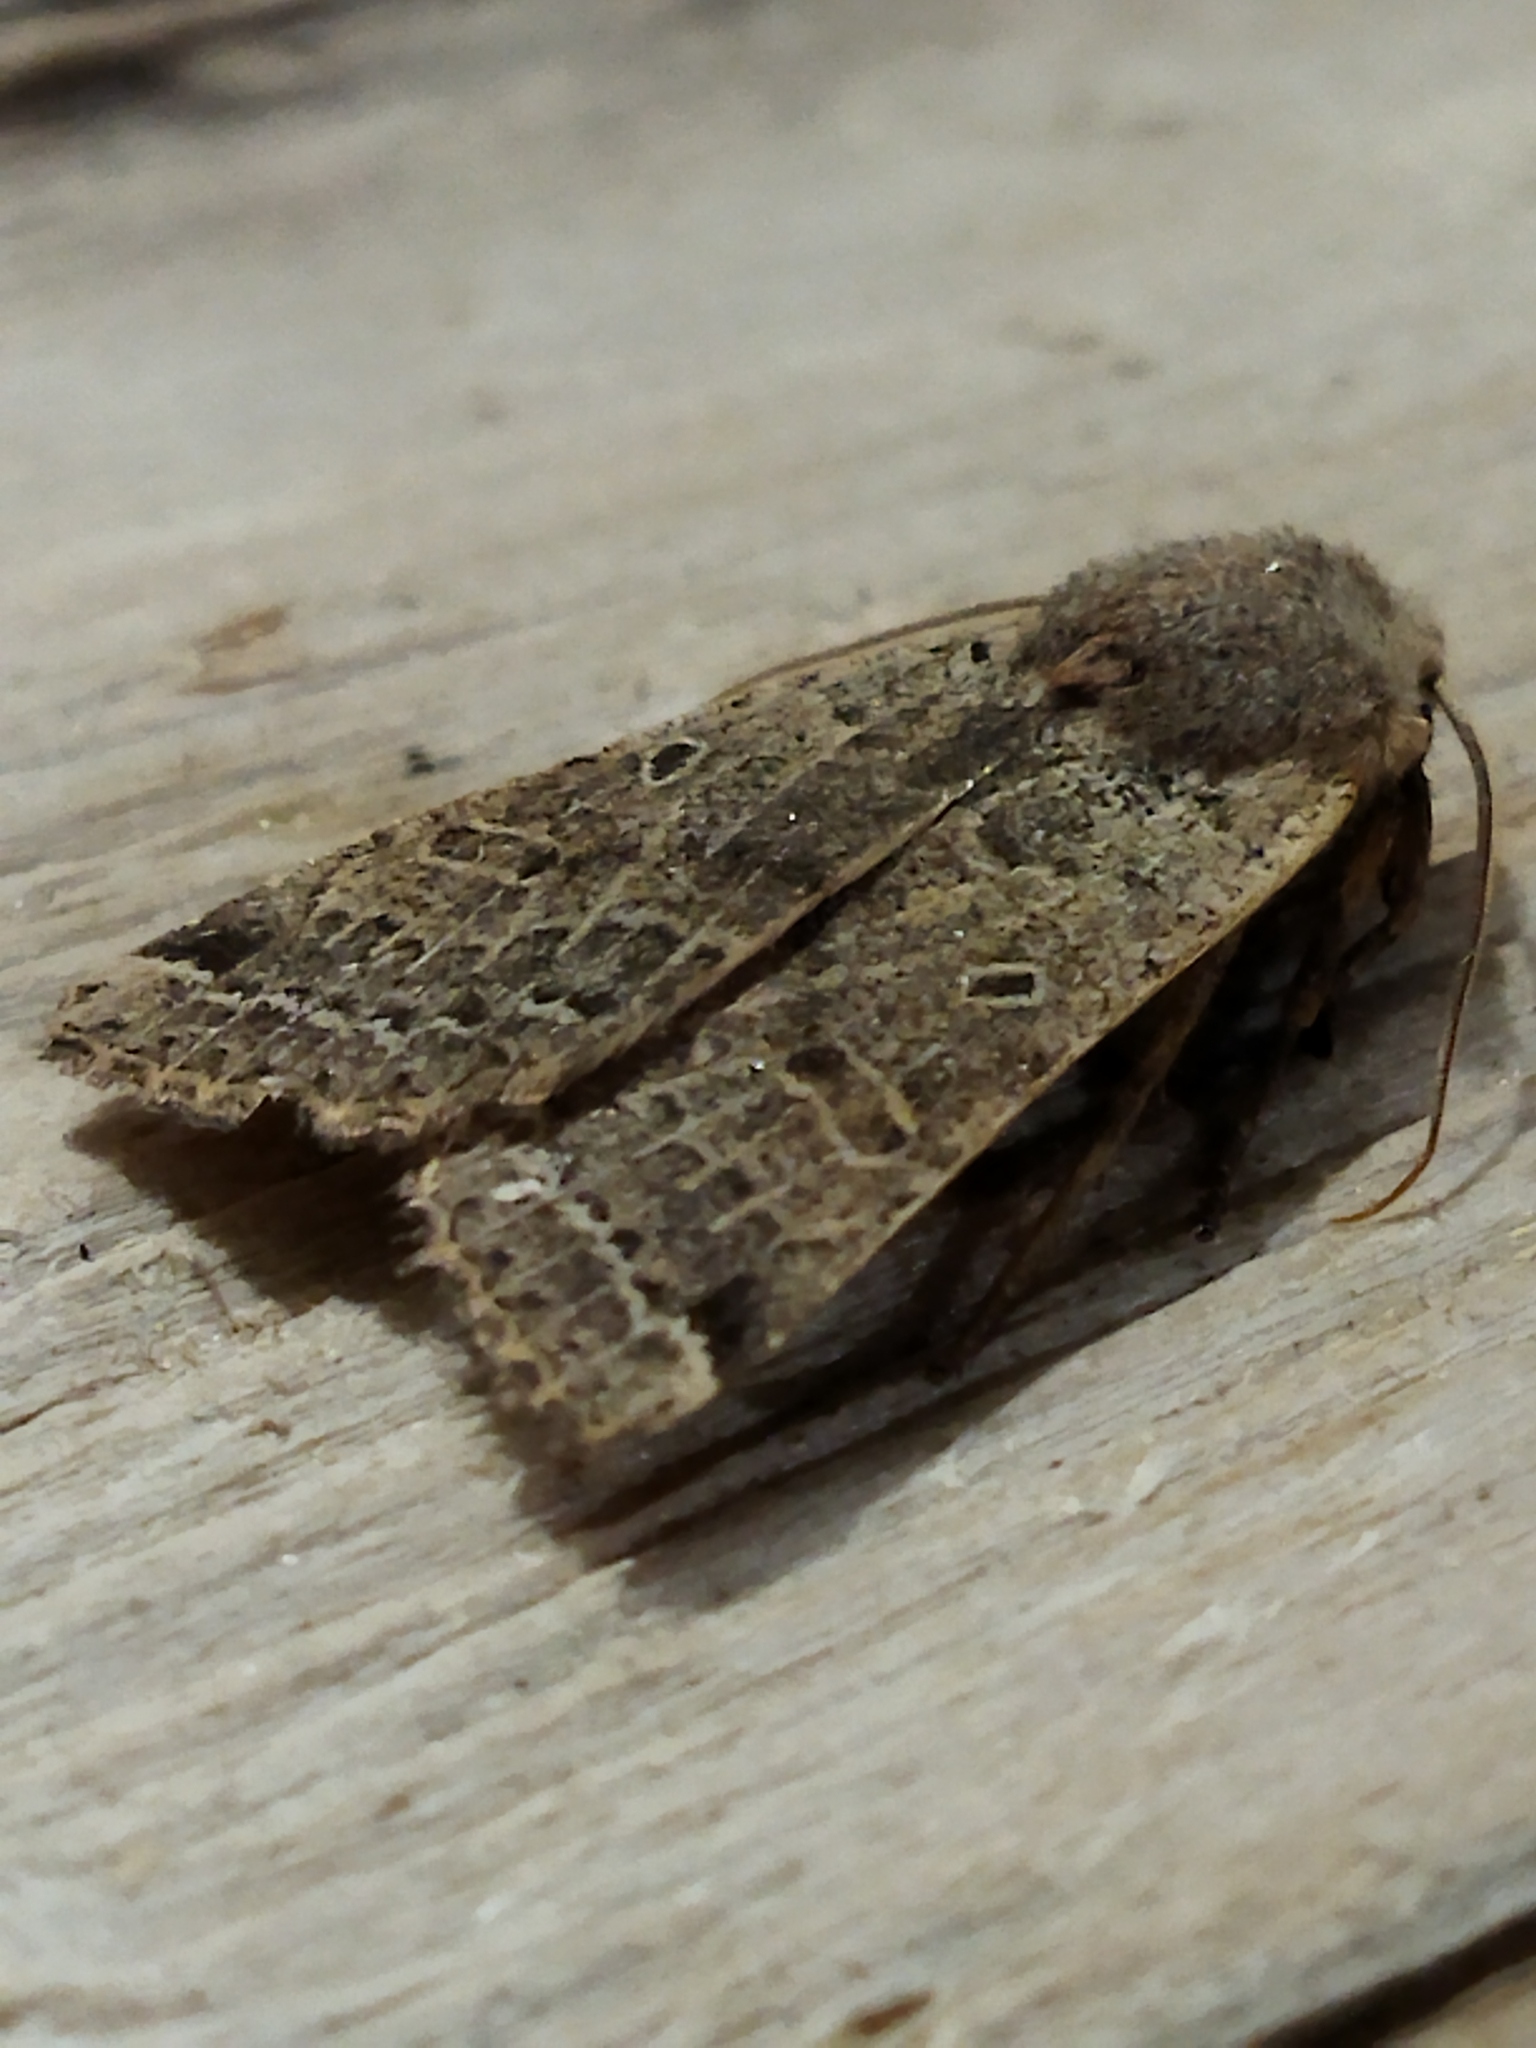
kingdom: Animalia
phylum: Arthropoda
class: Insecta
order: Lepidoptera
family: Noctuidae
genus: Agrochola
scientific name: Agrochola lychnidis
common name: Beaded chestnut
